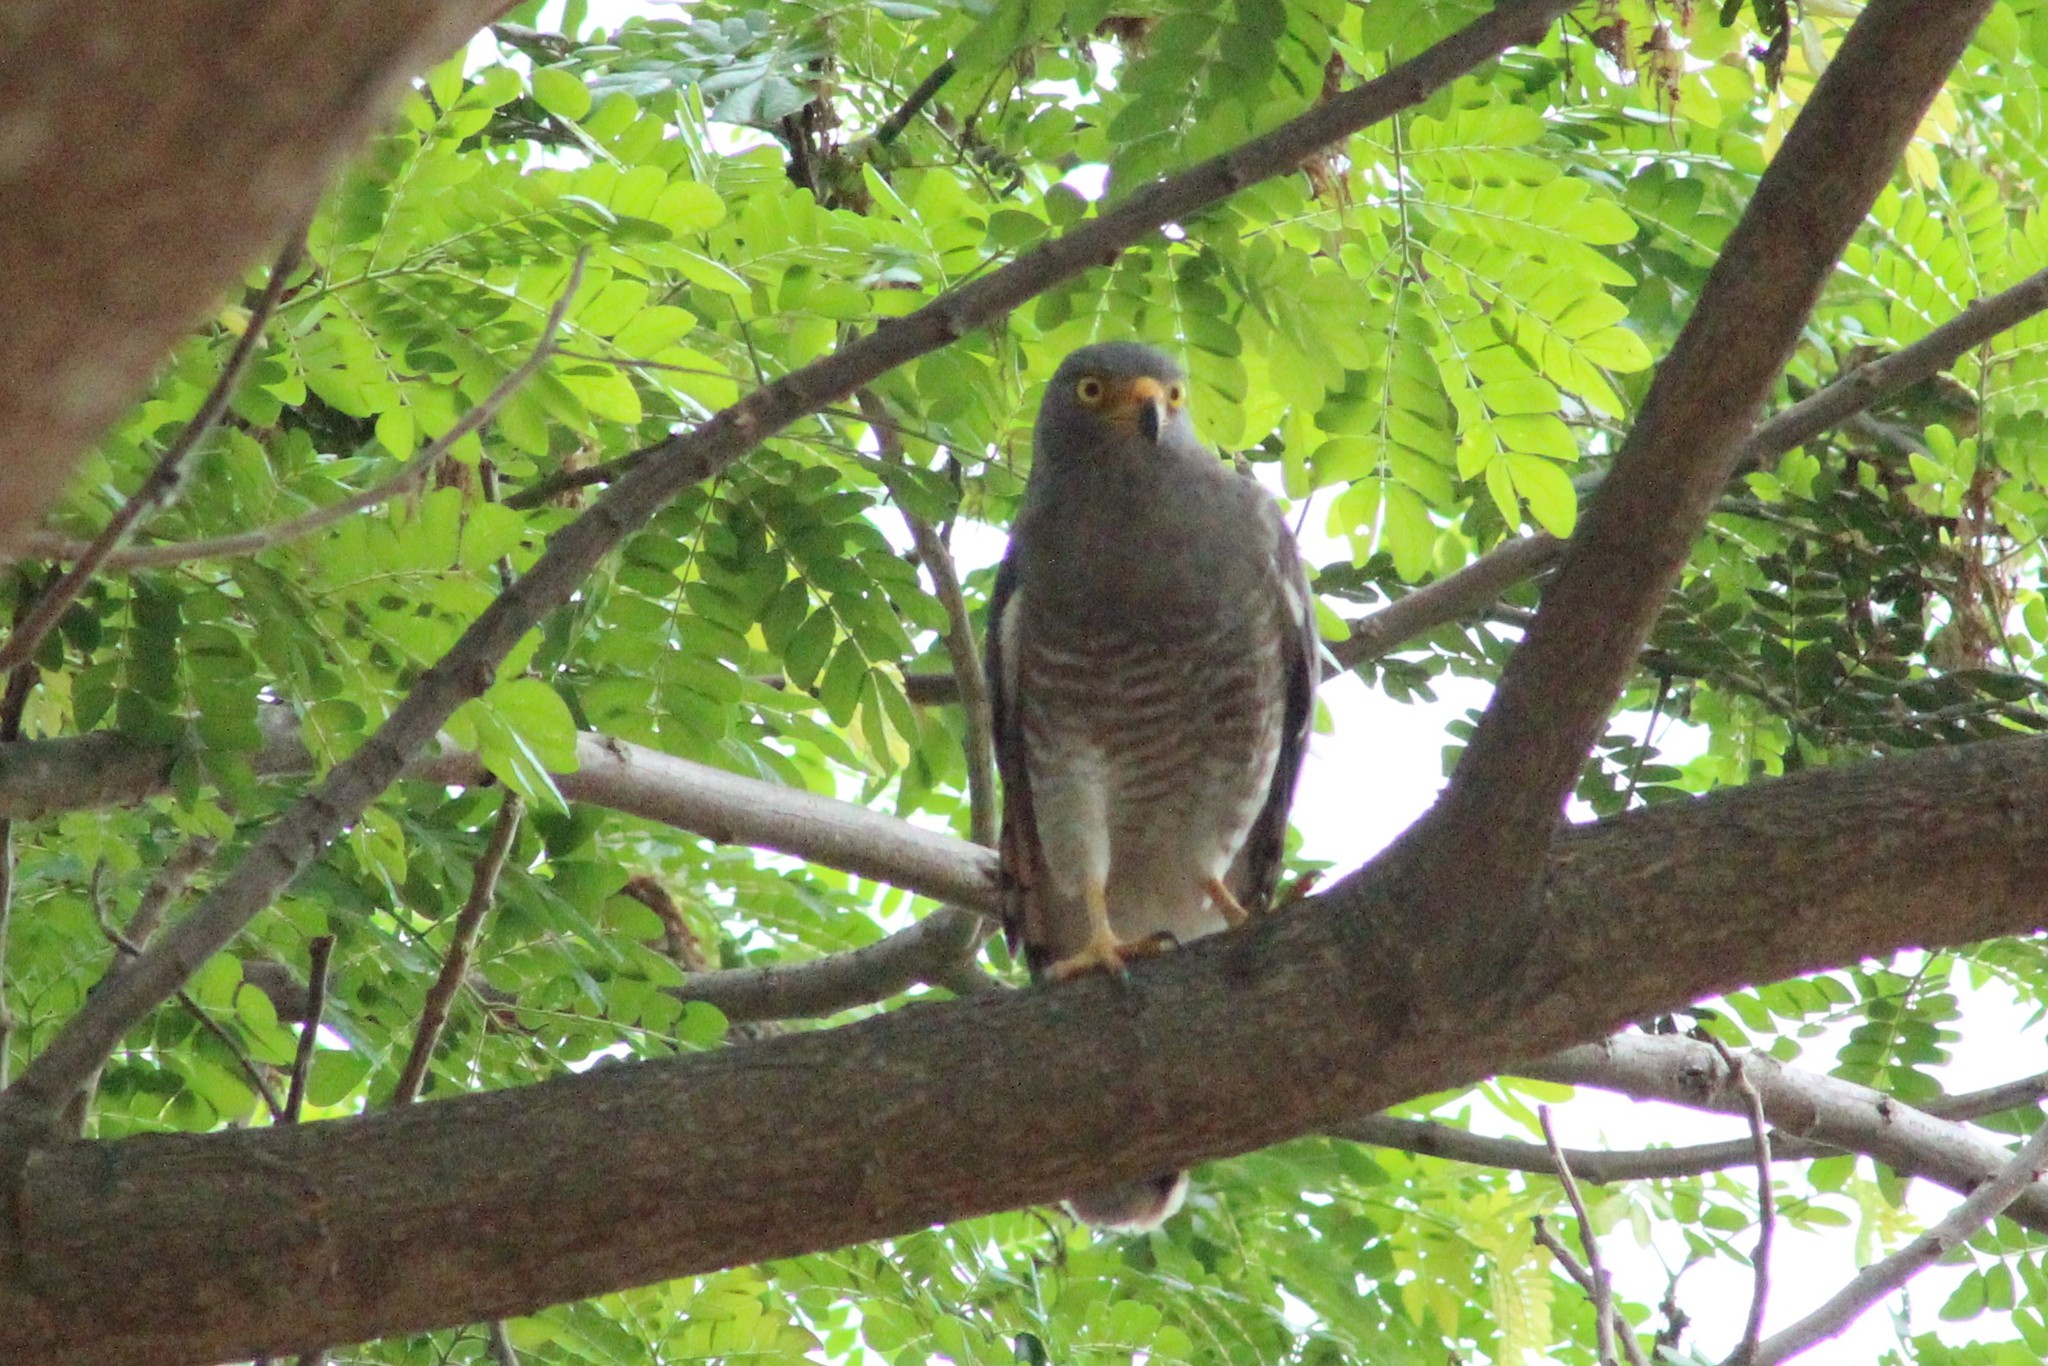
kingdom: Animalia
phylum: Chordata
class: Aves
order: Accipitriformes
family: Accipitridae
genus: Rupornis
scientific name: Rupornis magnirostris
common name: Roadside hawk
